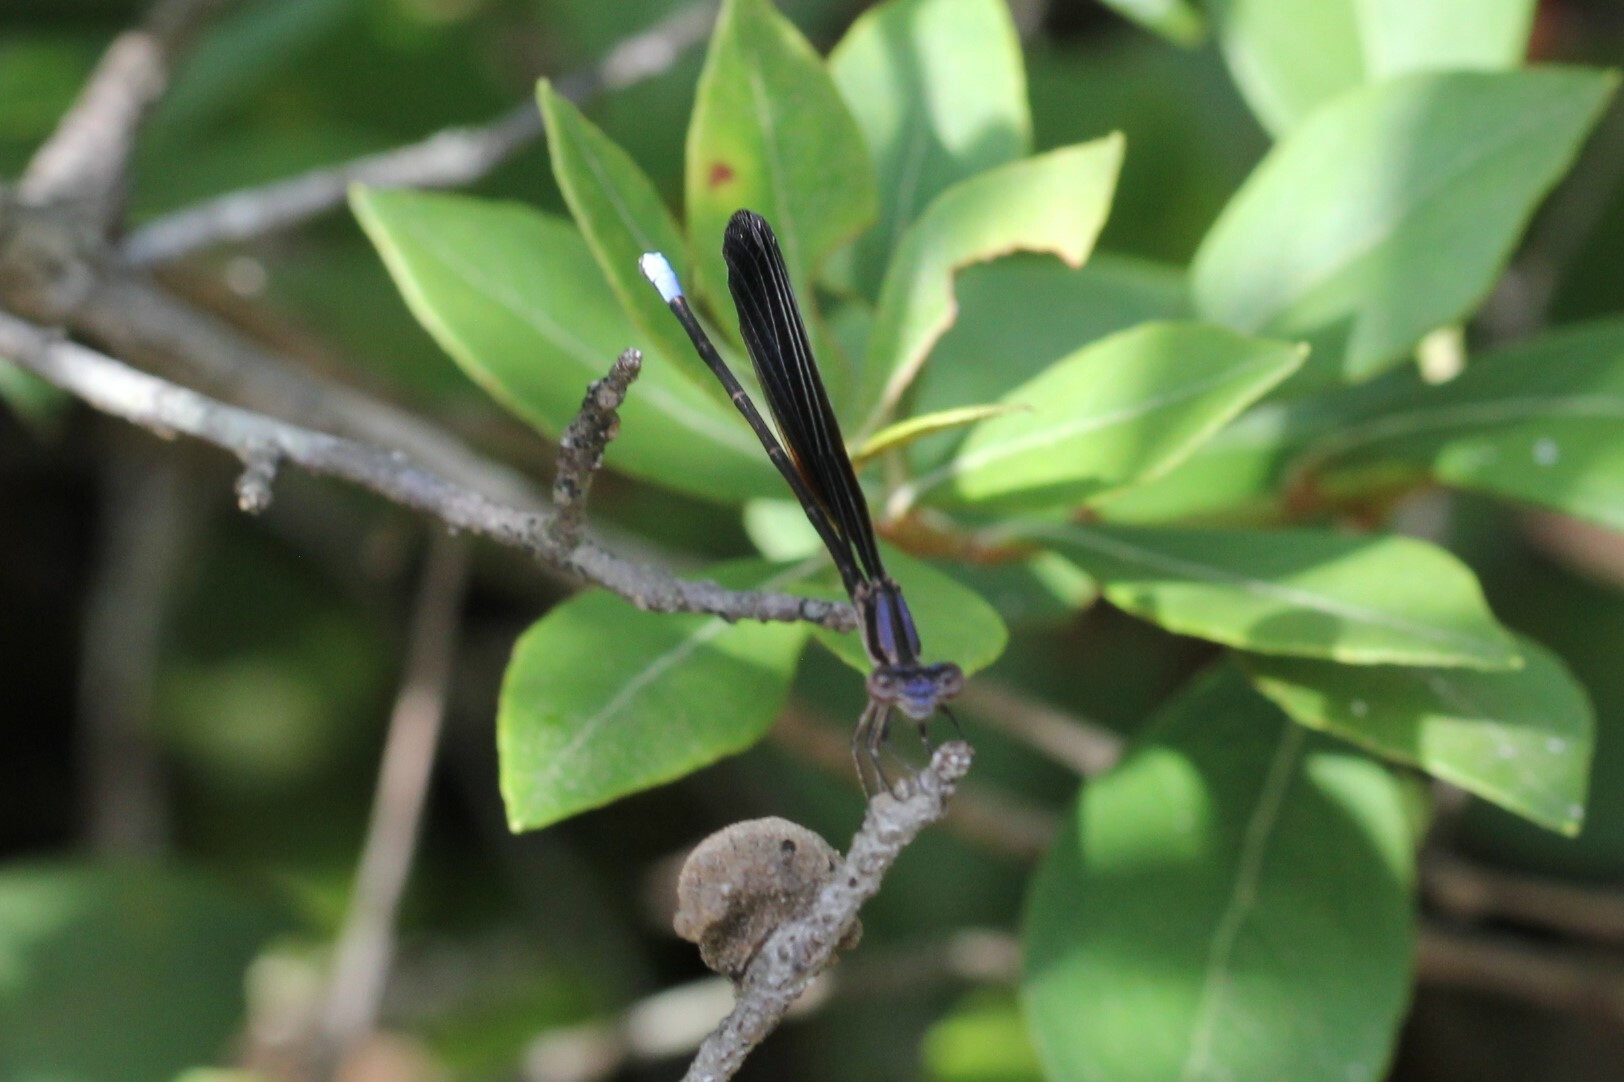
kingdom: Animalia
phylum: Arthropoda
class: Insecta
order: Odonata
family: Coenagrionidae
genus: Argia
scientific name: Argia fumipennis
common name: Variable dancer
